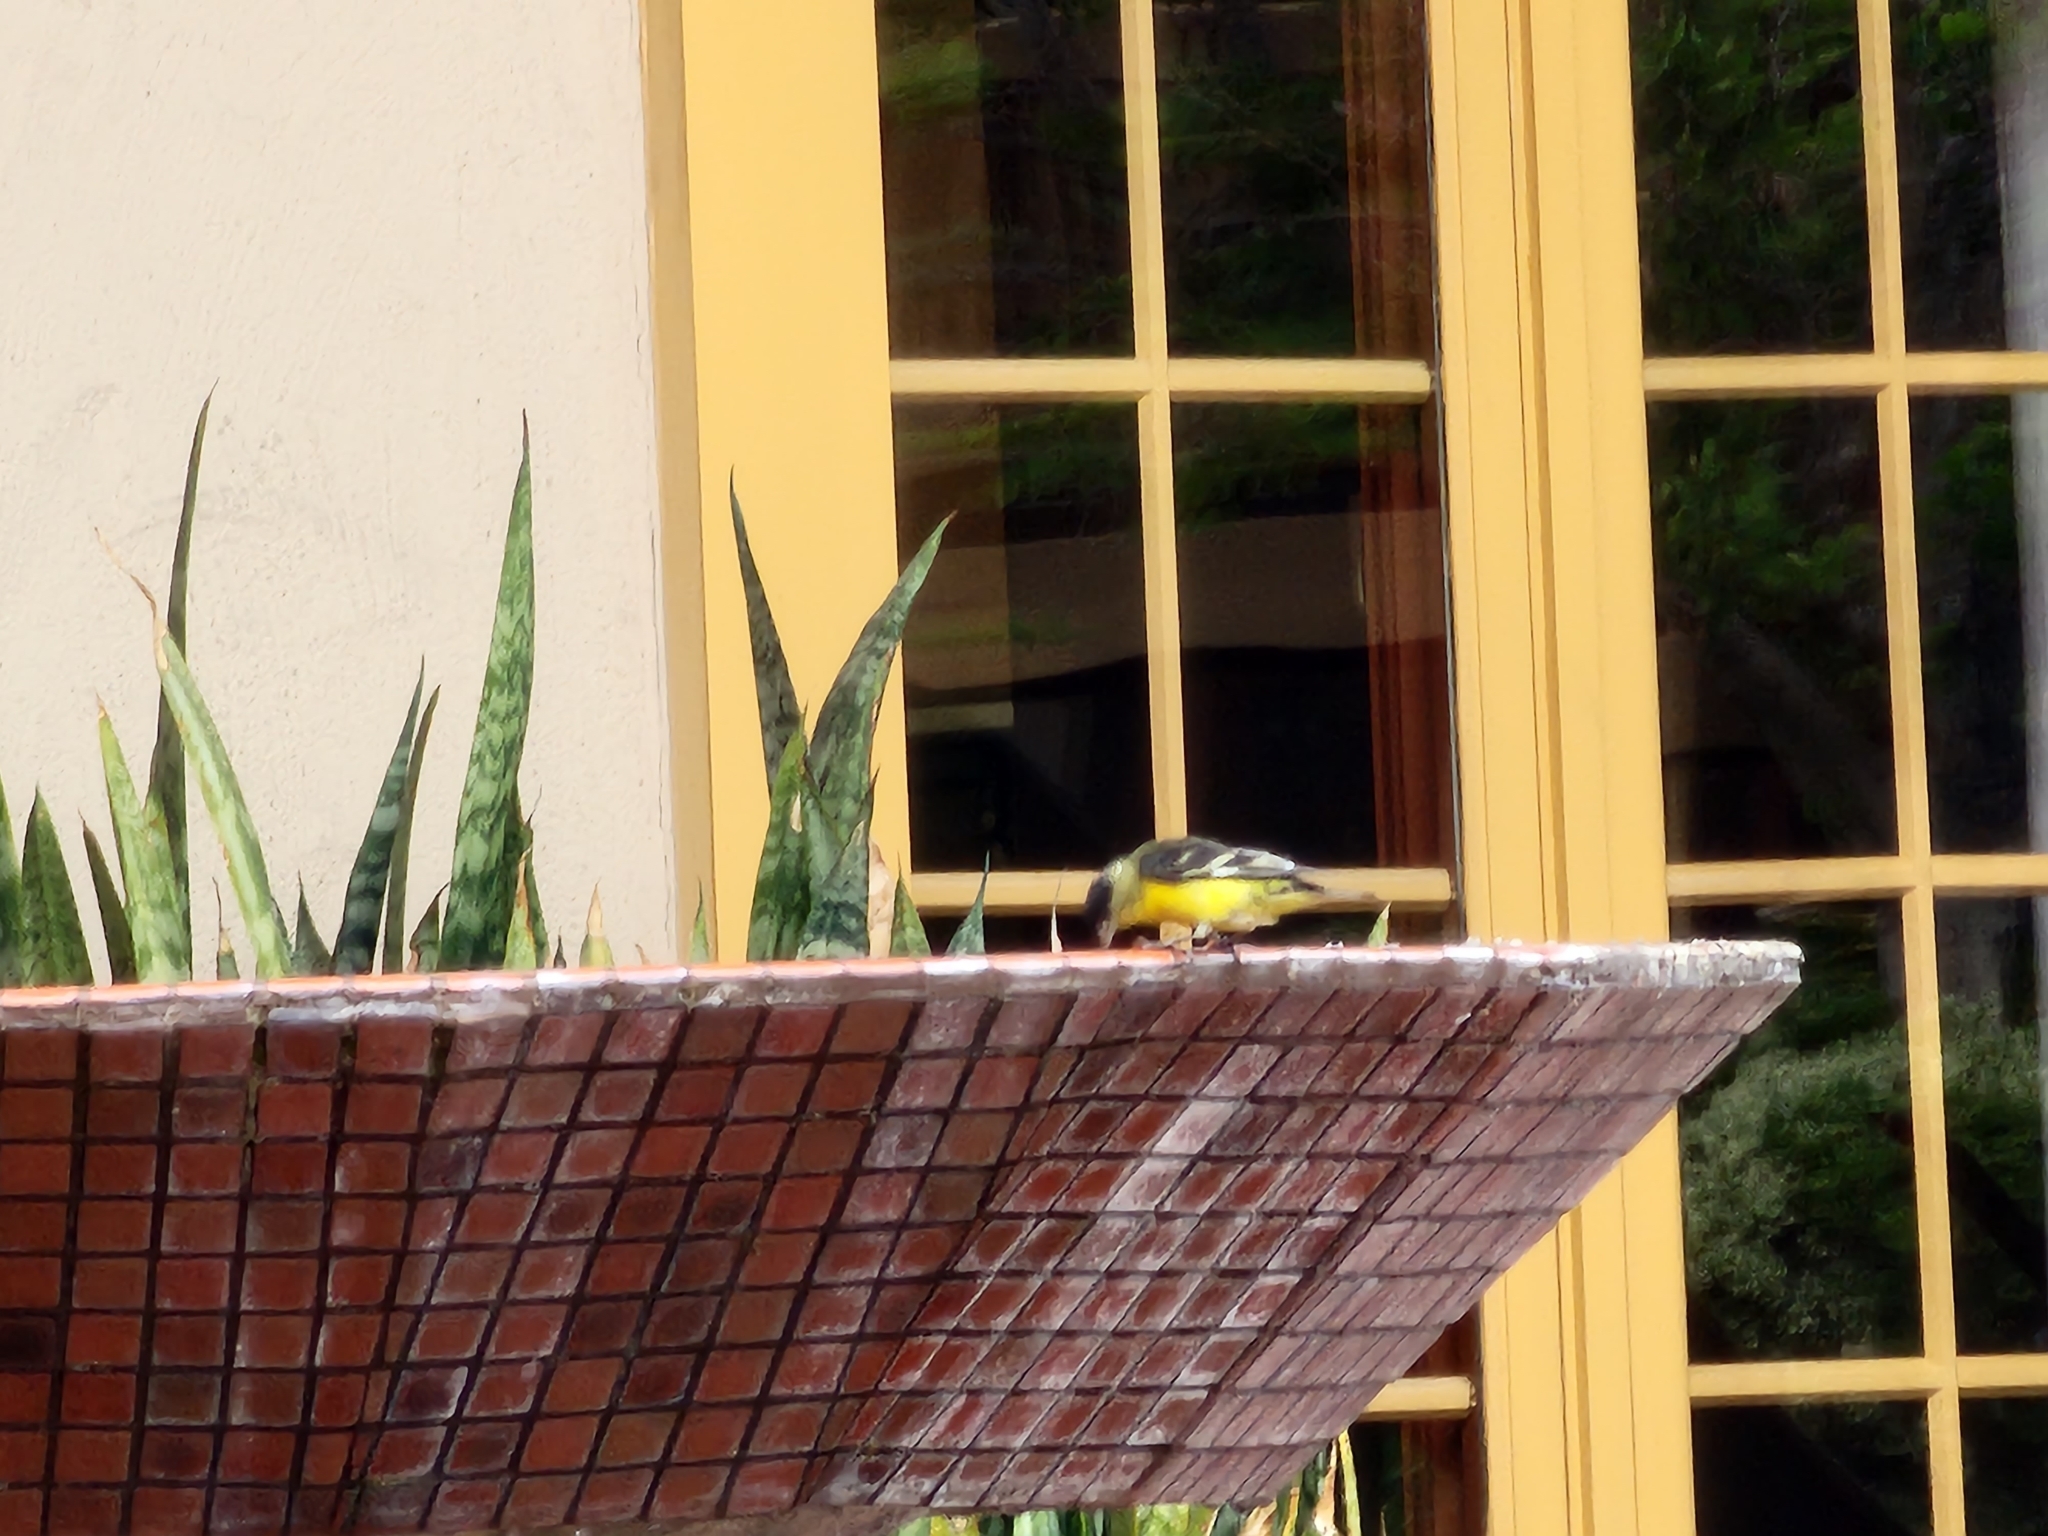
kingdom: Animalia
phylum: Chordata
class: Aves
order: Passeriformes
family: Fringillidae
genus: Spinus
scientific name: Spinus psaltria
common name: Lesser goldfinch
